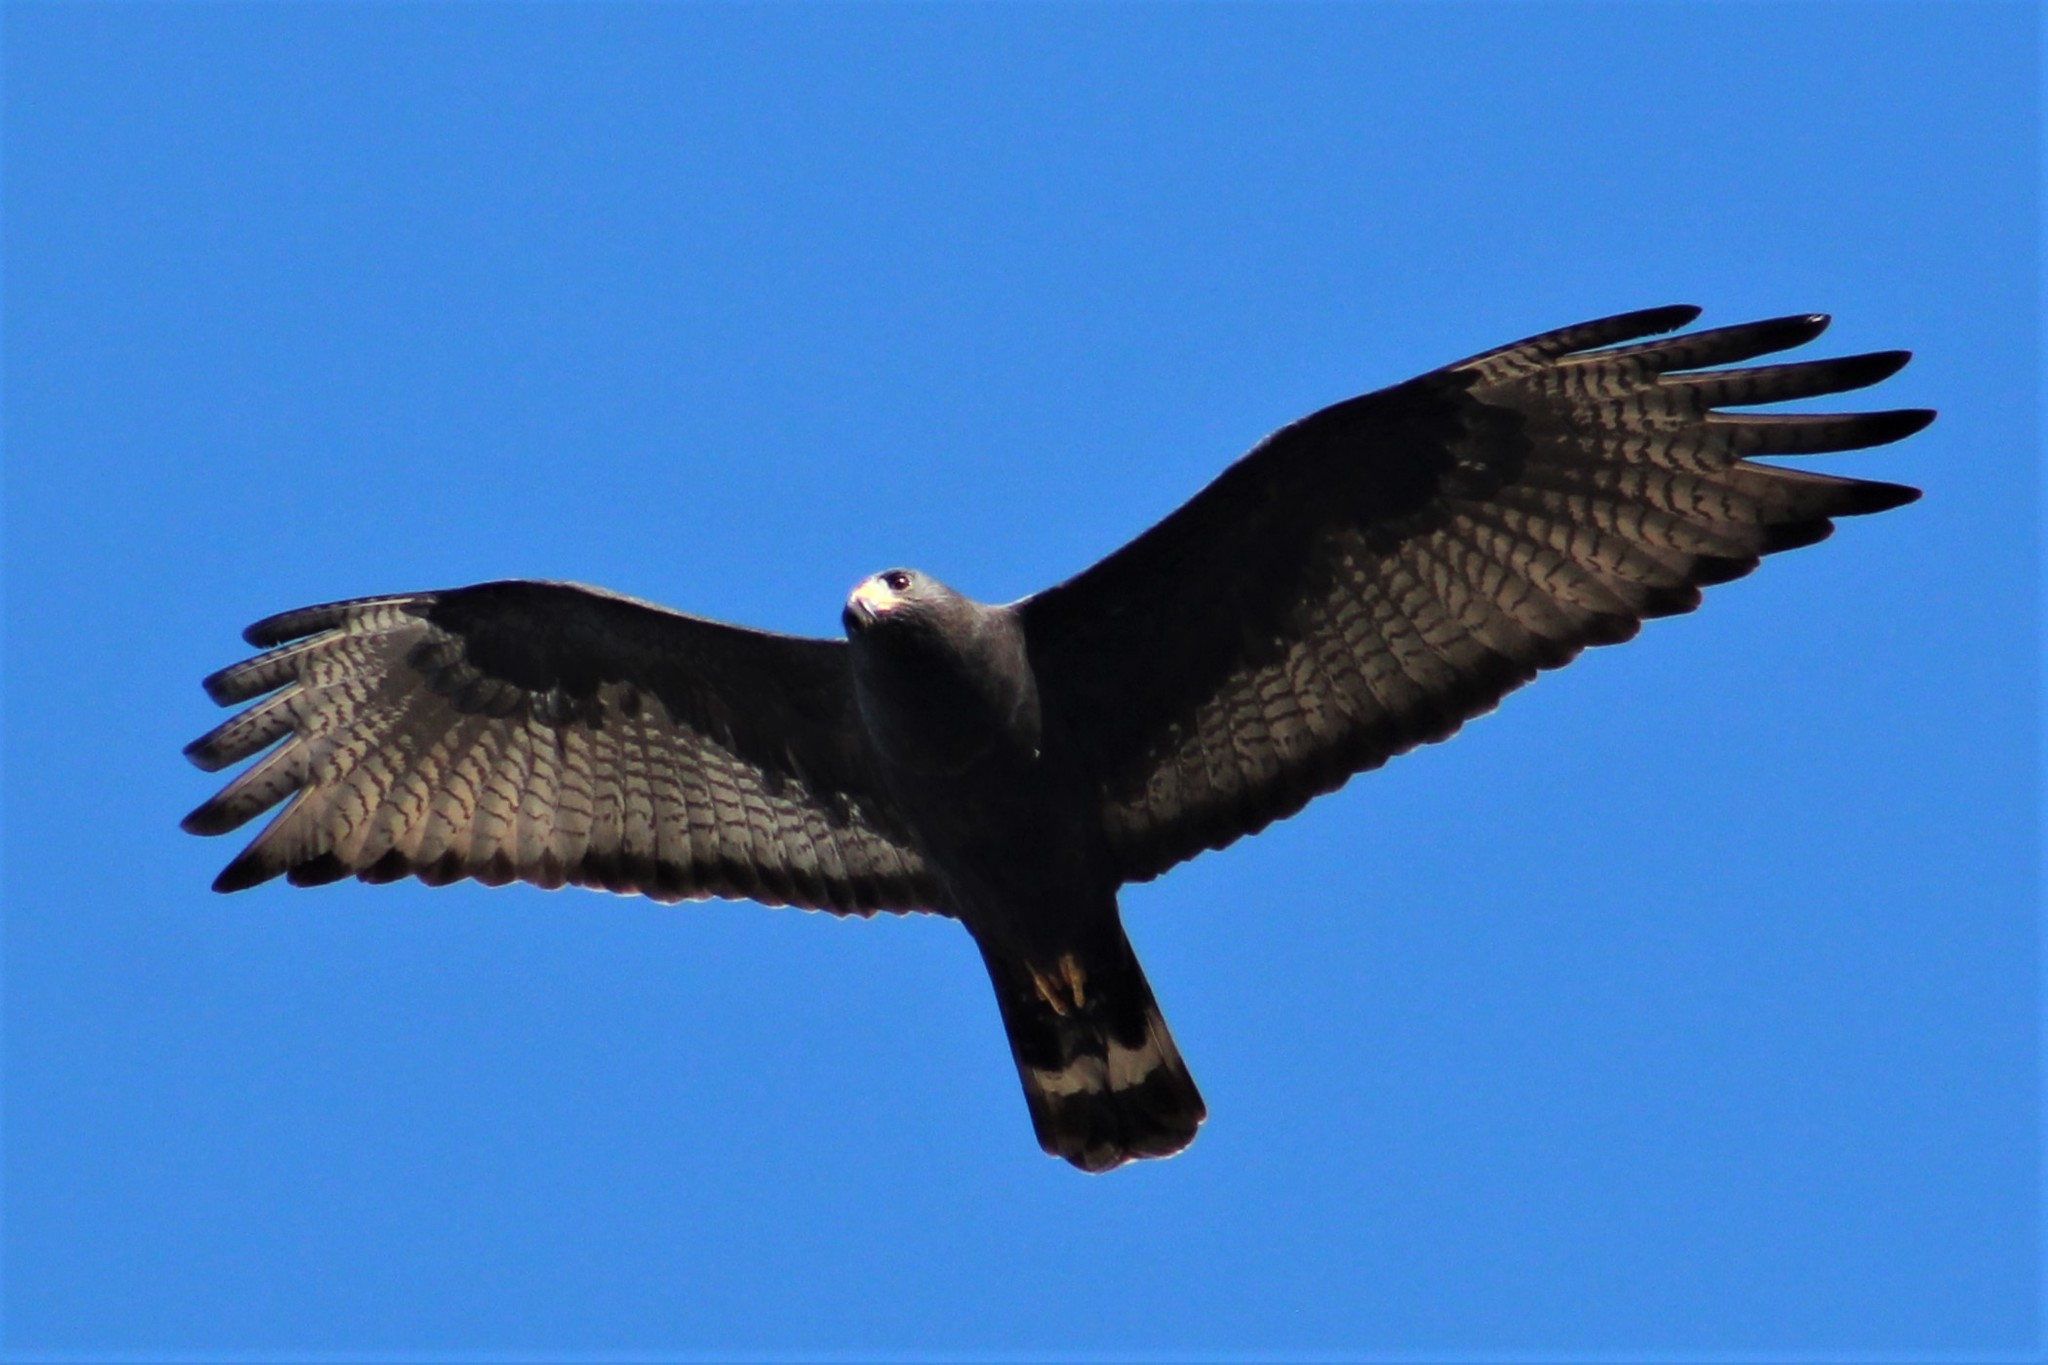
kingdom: Animalia
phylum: Chordata
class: Aves
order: Accipitriformes
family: Accipitridae
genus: Buteo
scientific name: Buteo albonotatus
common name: Zone-tailed hawk
